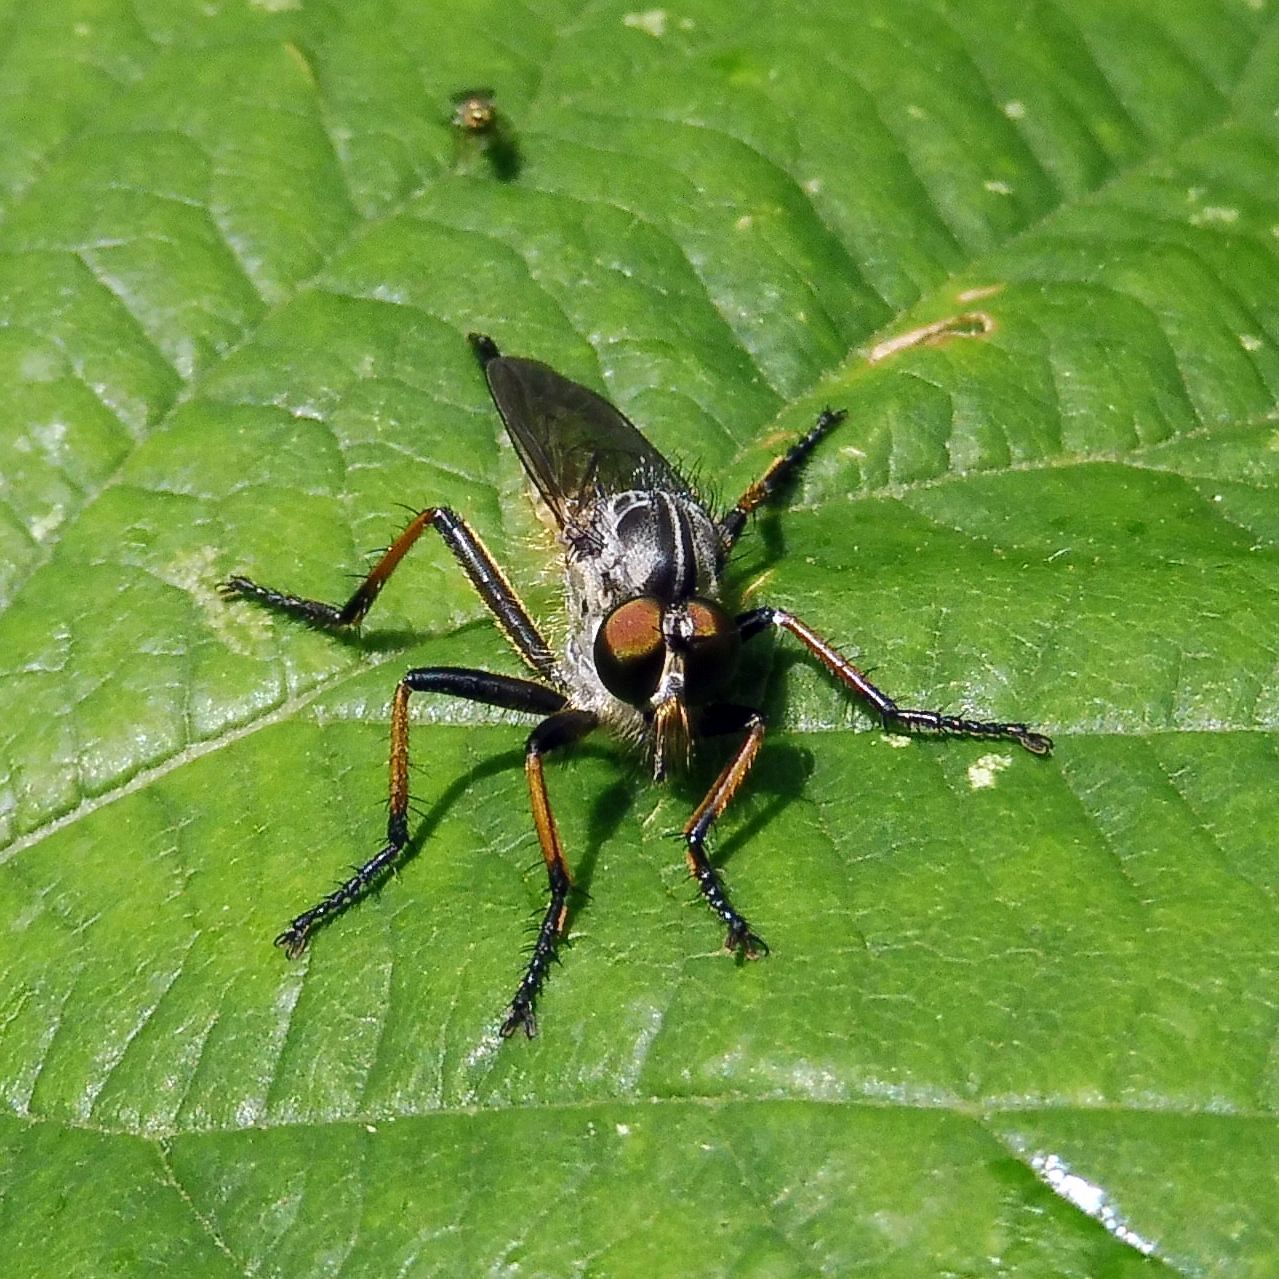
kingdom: Animalia
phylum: Arthropoda
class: Insecta
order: Diptera
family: Asilidae
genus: Neoitamus
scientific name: Neoitamus cyanurus
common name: Common awl robberfly
